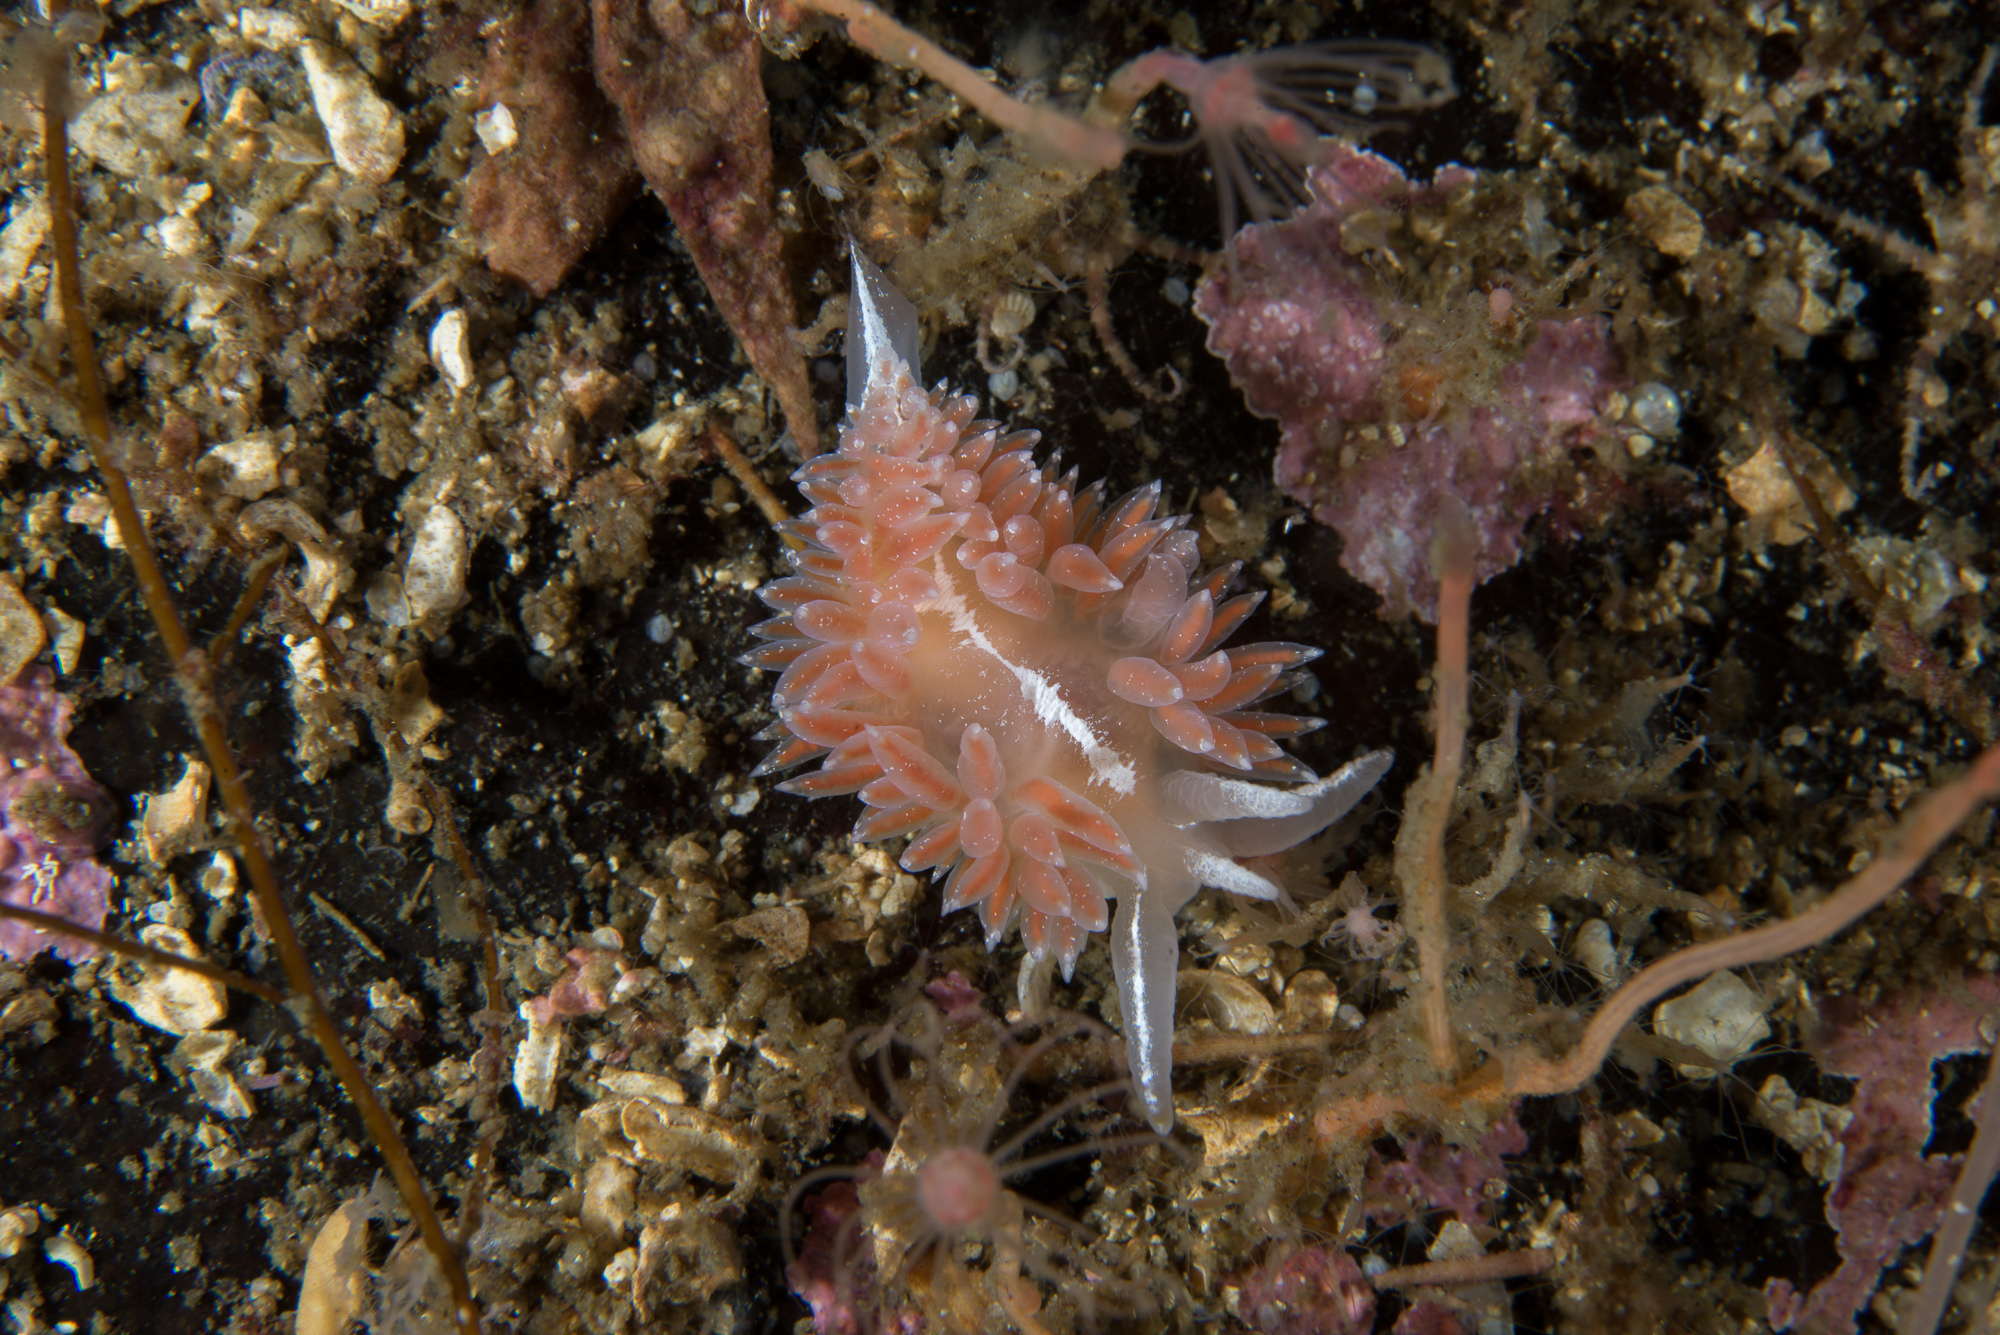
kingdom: Animalia
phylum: Mollusca
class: Gastropoda
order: Nudibranchia
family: Coryphellidae
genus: Coryphella
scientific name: Coryphella orjani
